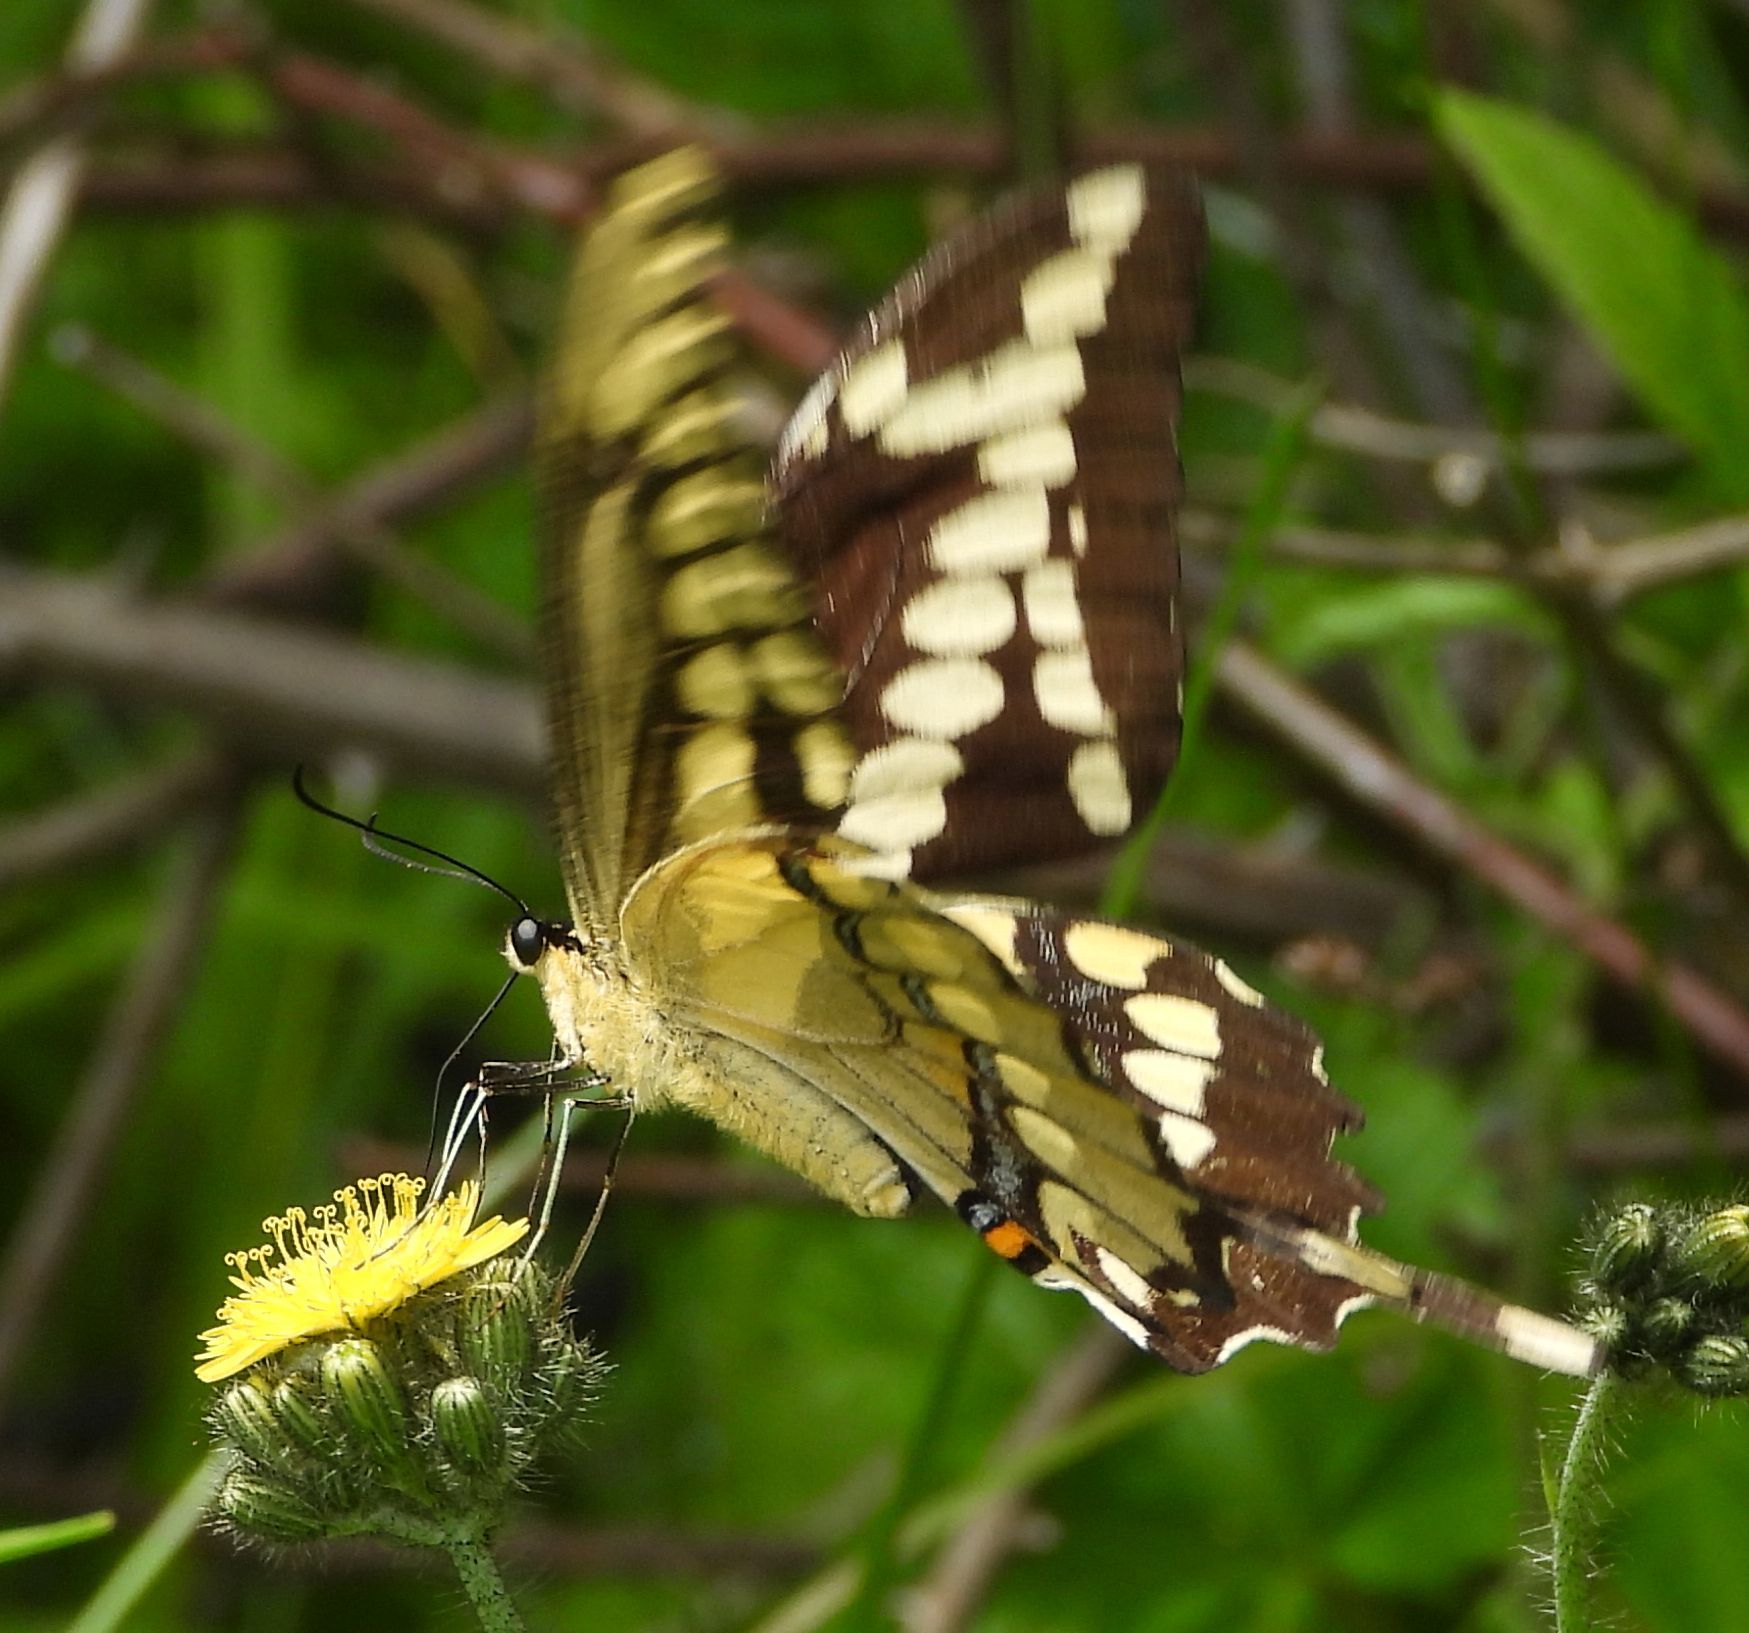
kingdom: Animalia
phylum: Arthropoda
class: Insecta
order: Lepidoptera
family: Papilionidae
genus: Papilio
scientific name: Papilio cresphontes
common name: Giant swallowtail
